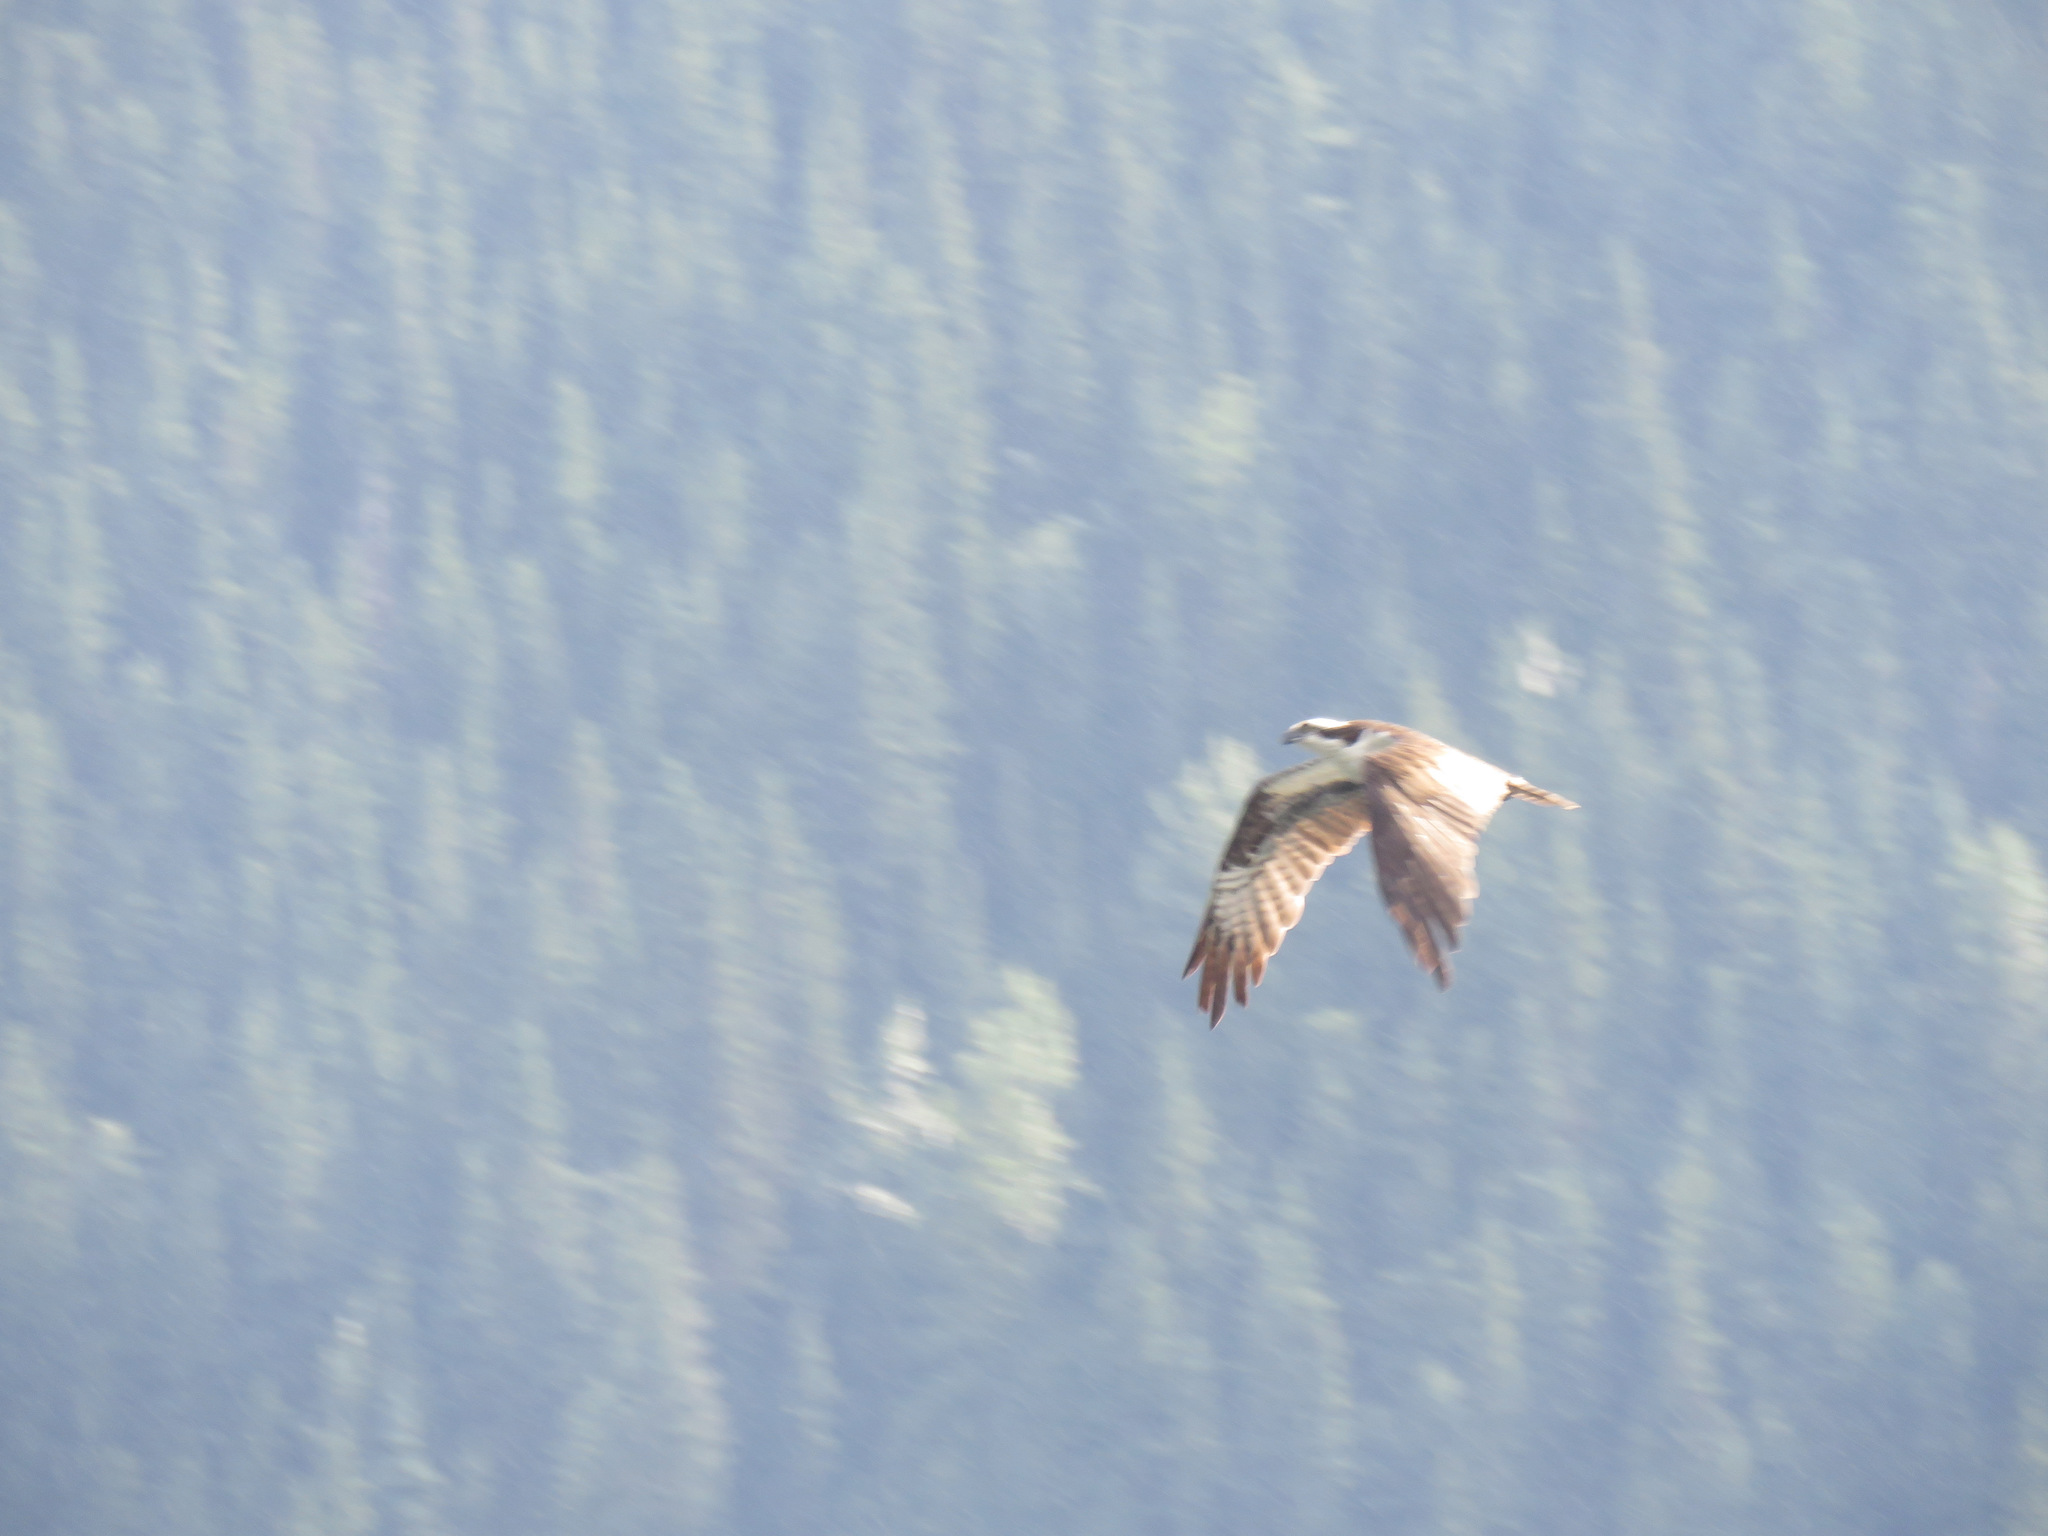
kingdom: Animalia
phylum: Chordata
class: Aves
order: Accipitriformes
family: Pandionidae
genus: Pandion
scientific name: Pandion haliaetus
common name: Osprey
